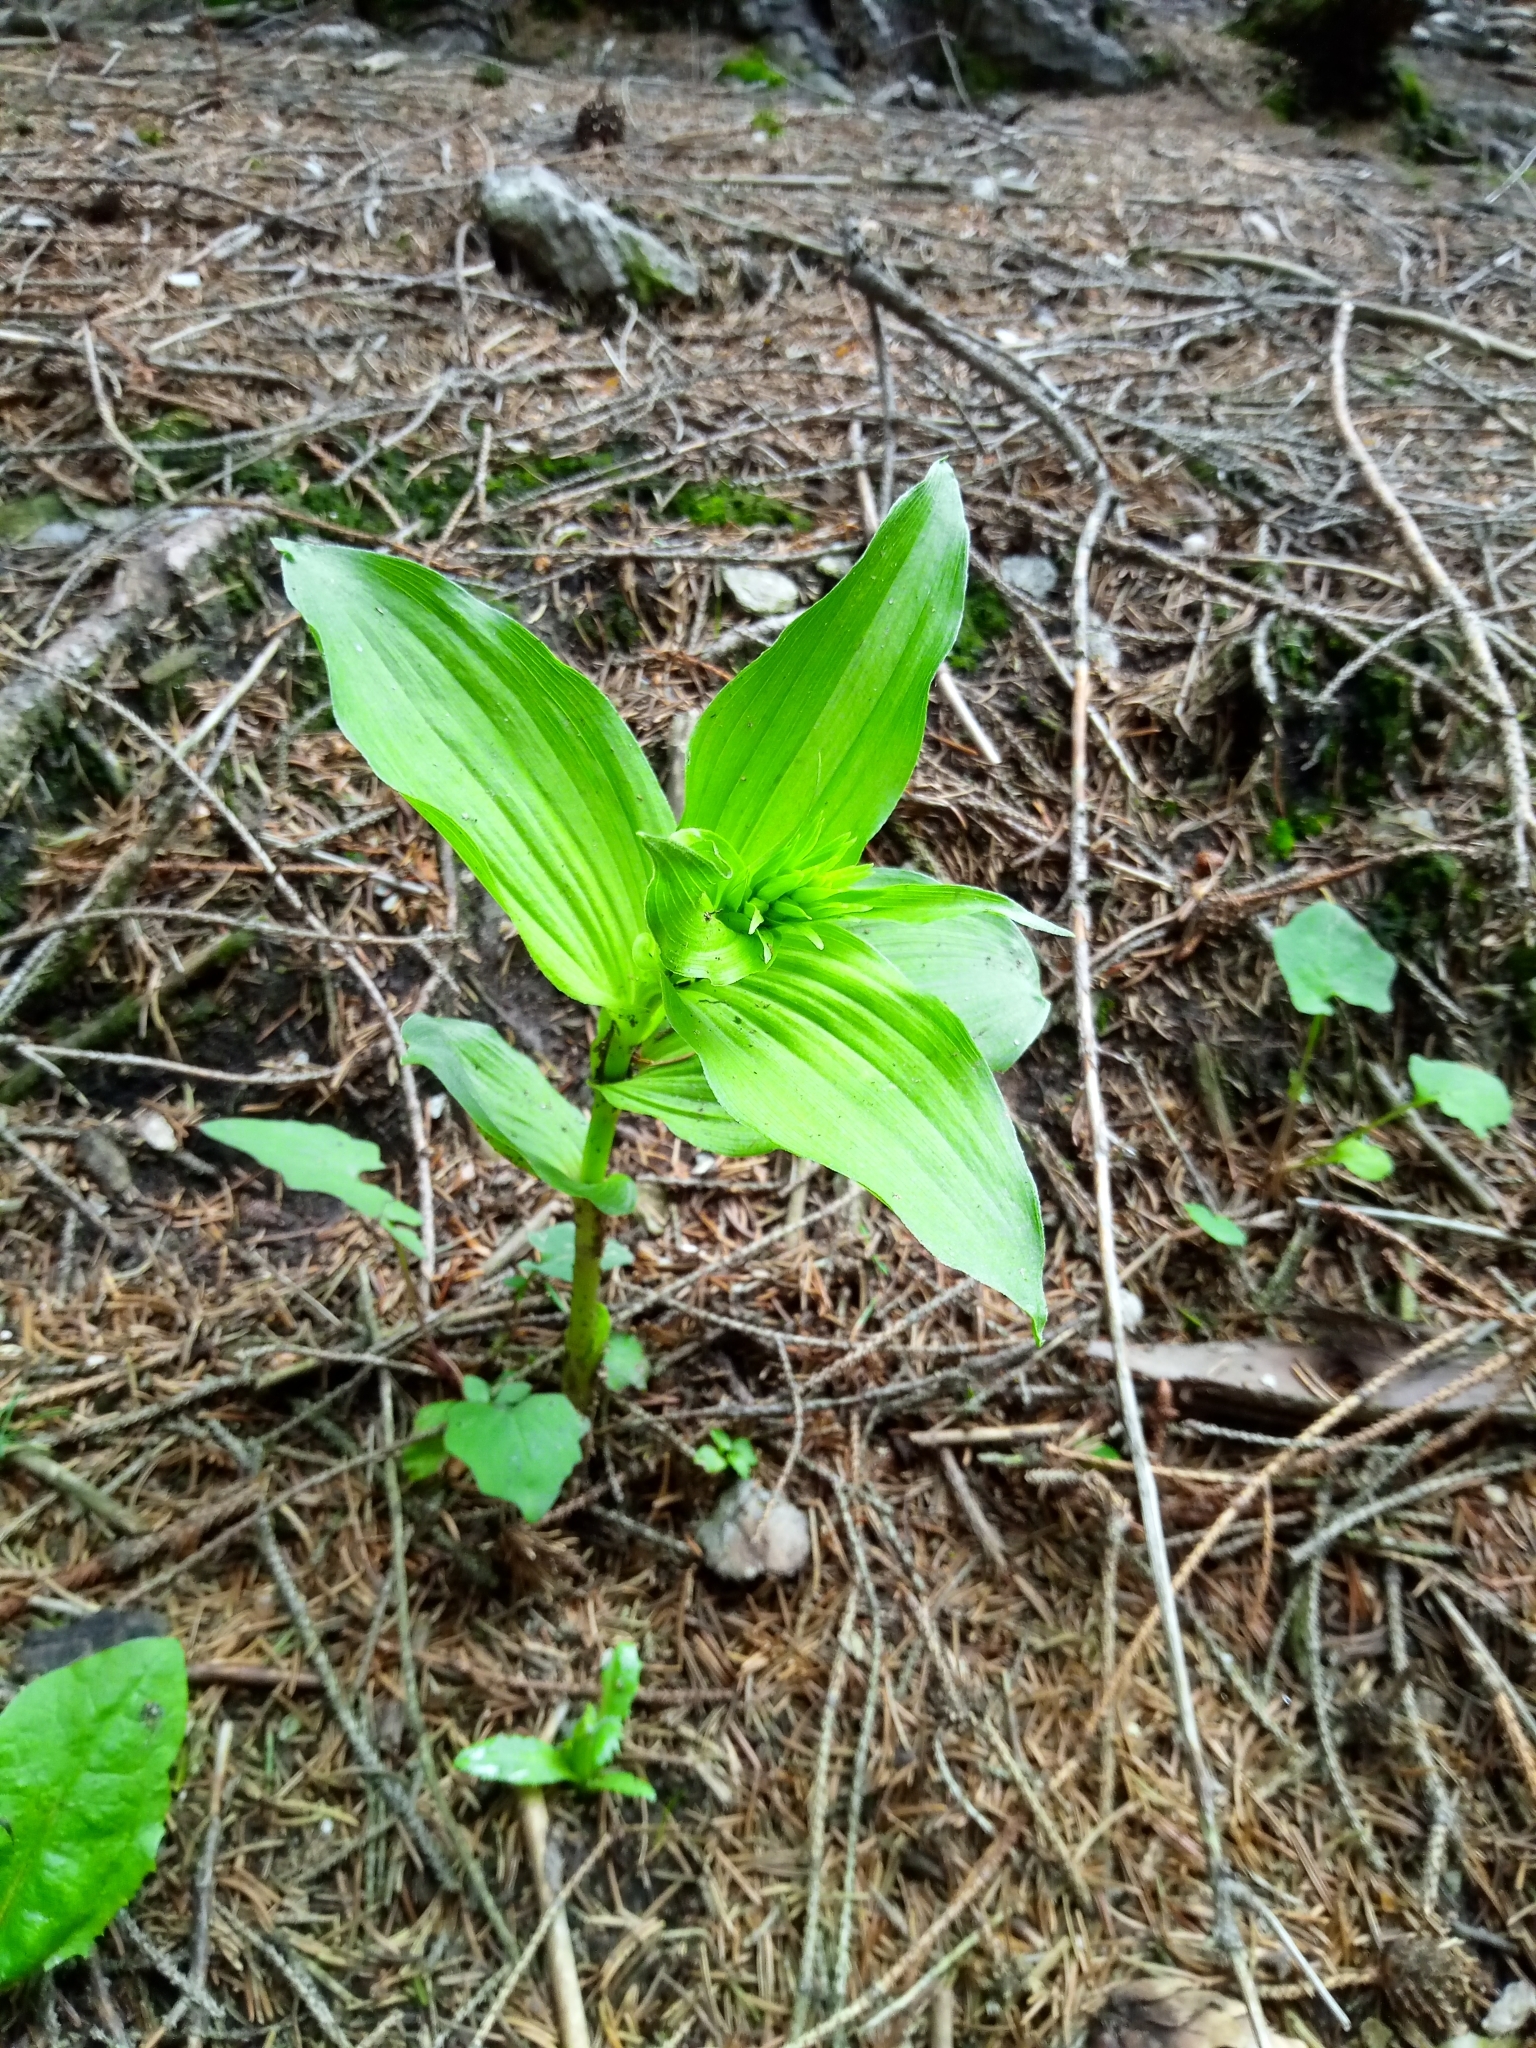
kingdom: Plantae
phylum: Tracheophyta
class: Liliopsida
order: Asparagales
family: Orchidaceae
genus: Epipactis
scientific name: Epipactis helleborine
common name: Broad-leaved helleborine
